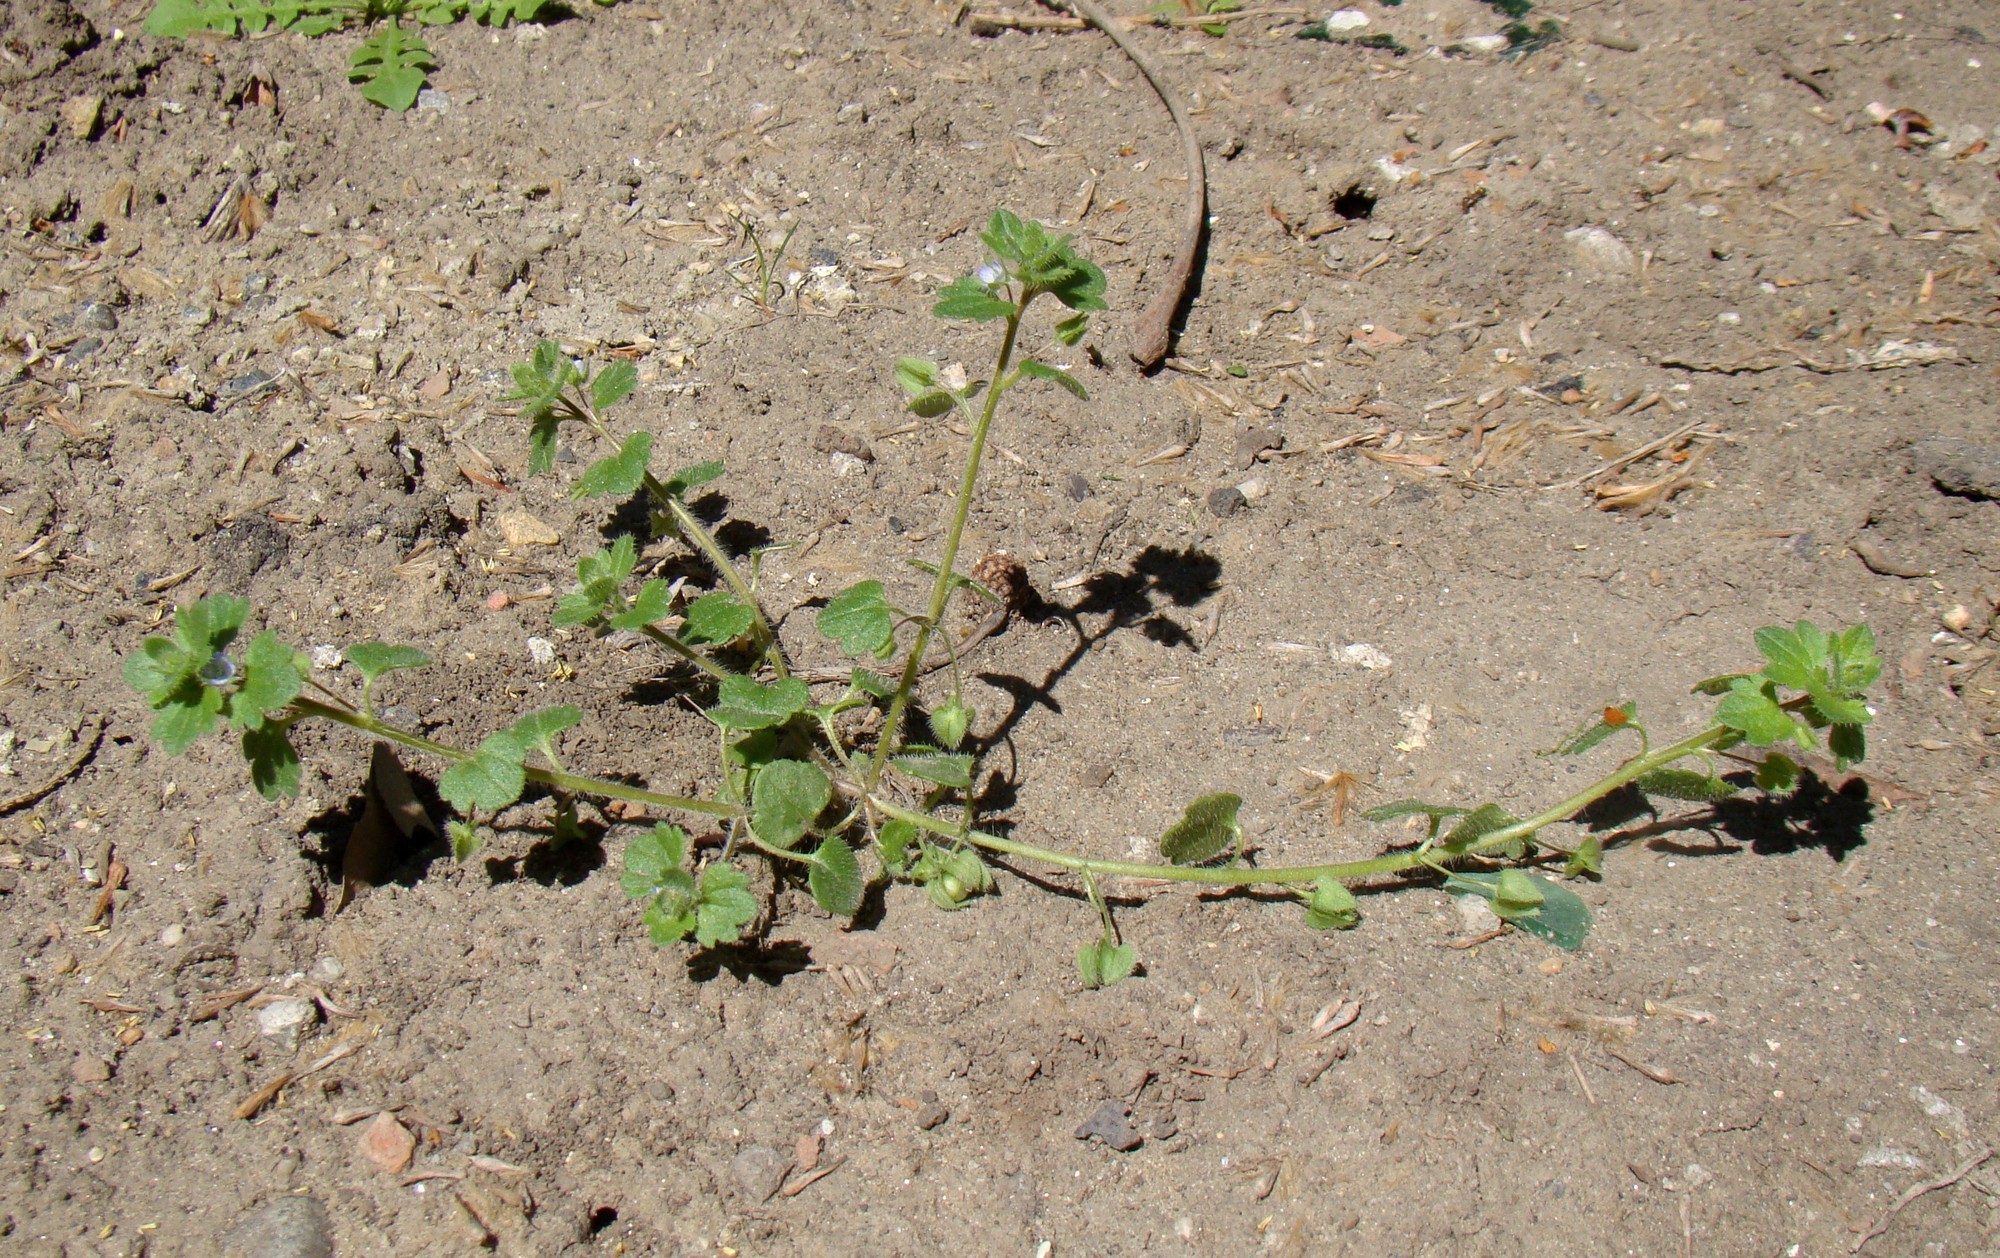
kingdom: Plantae
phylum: Tracheophyta
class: Magnoliopsida
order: Lamiales
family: Plantaginaceae
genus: Veronica
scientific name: Veronica hederifolia
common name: Ivy-leaved speedwell
